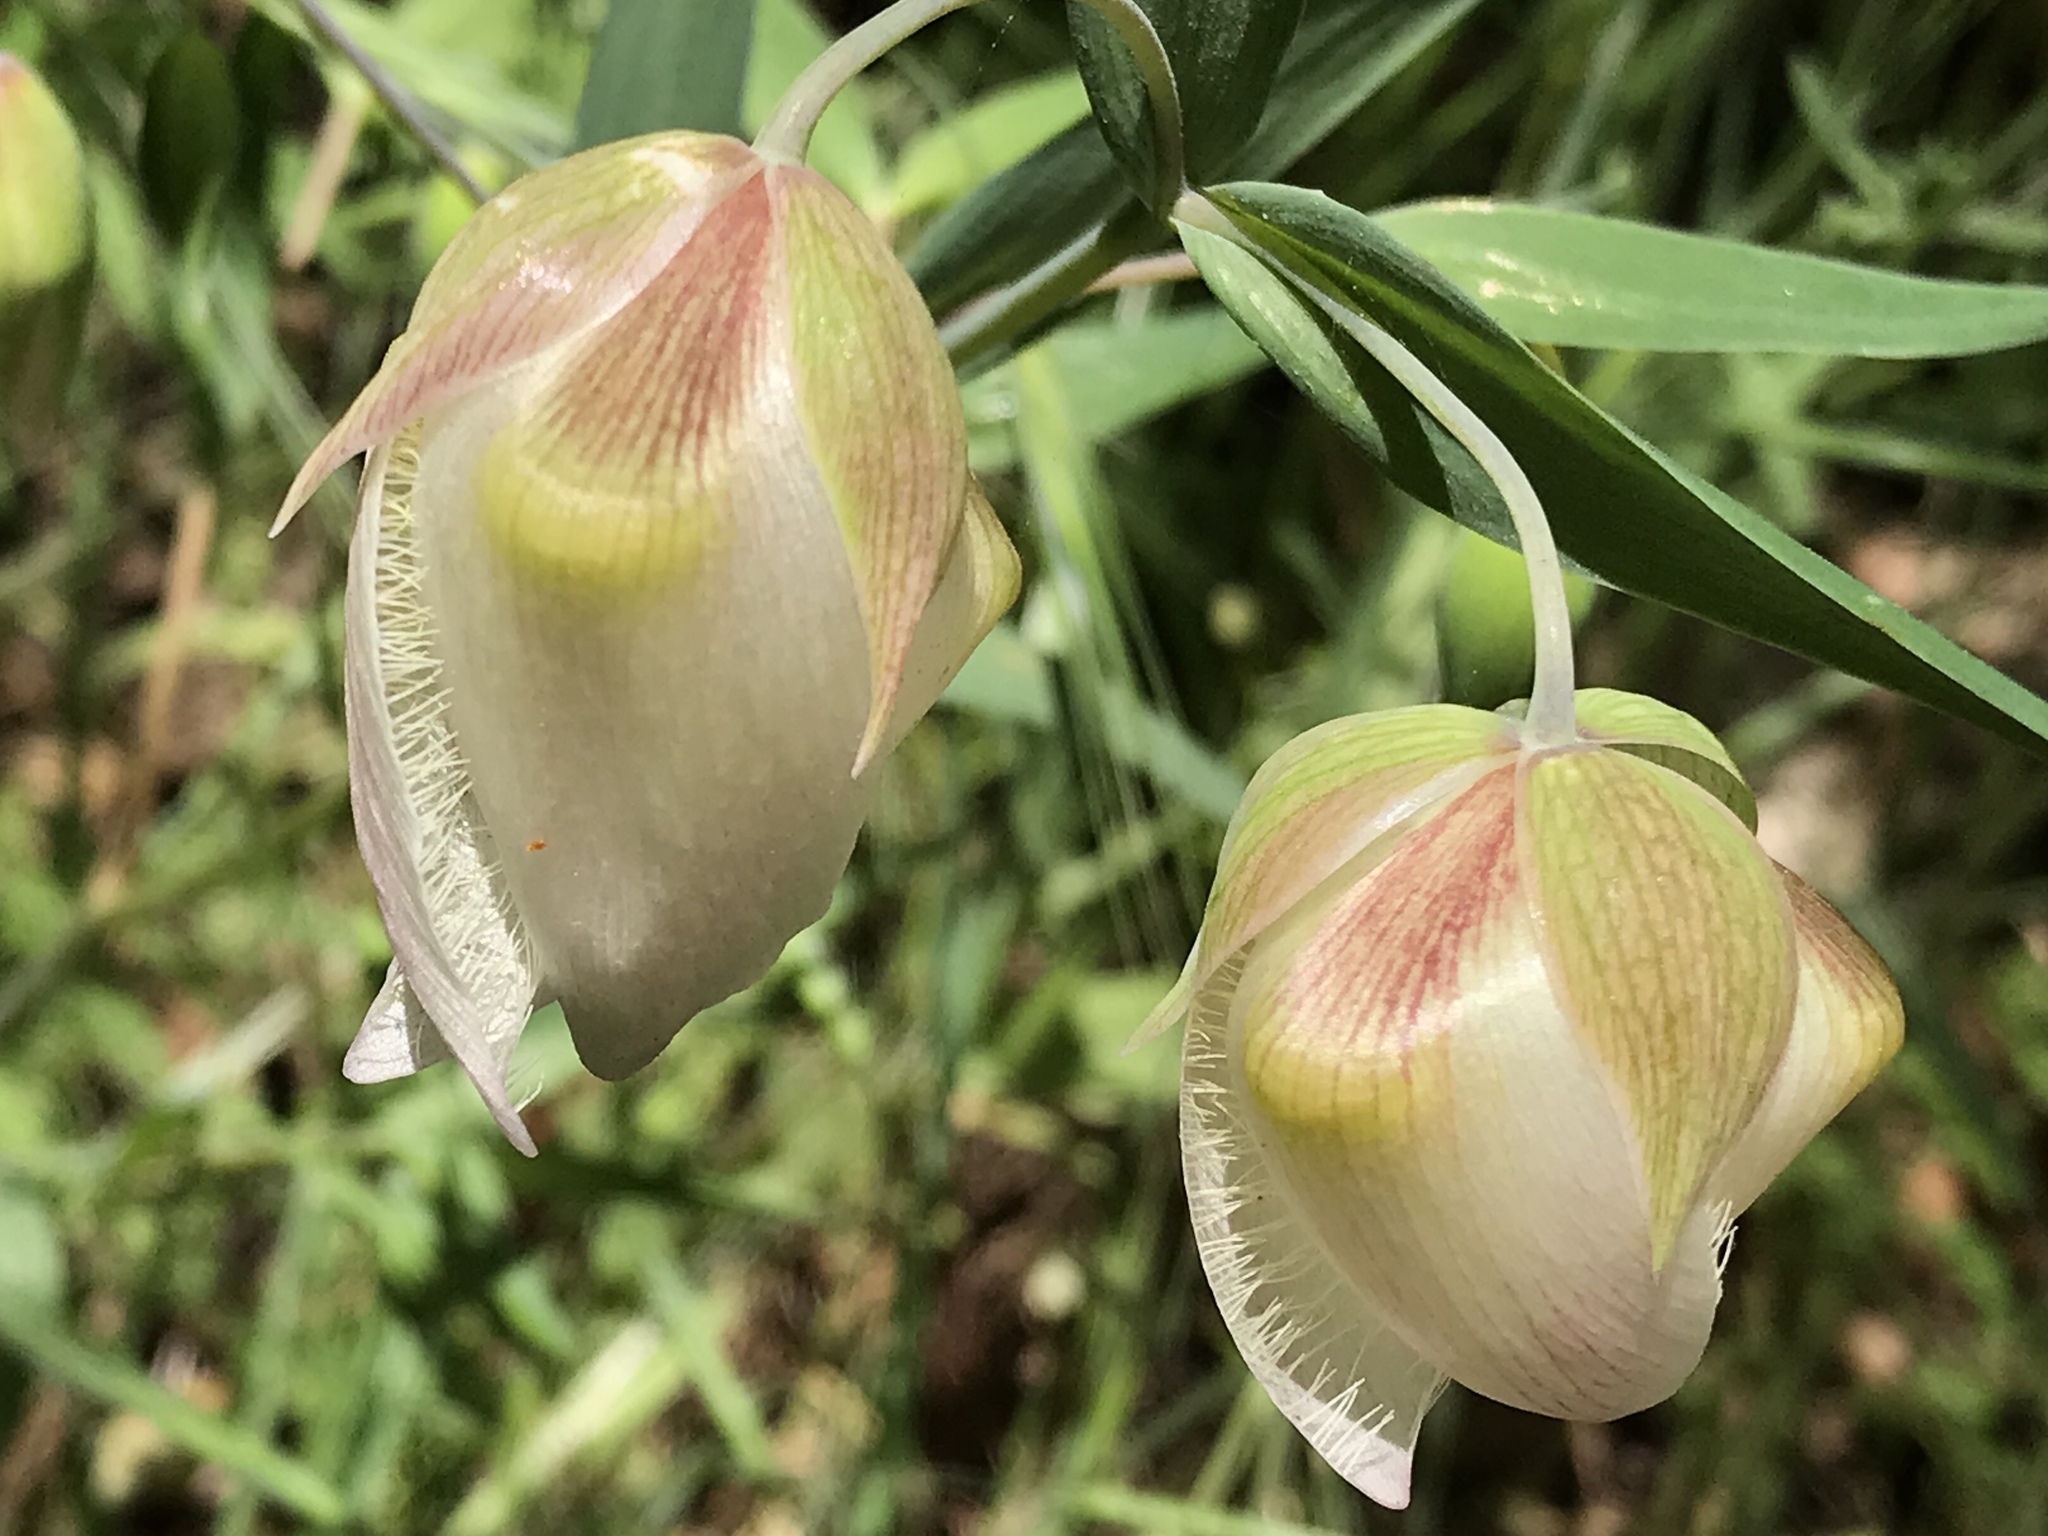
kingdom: Plantae
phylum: Tracheophyta
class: Liliopsida
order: Liliales
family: Liliaceae
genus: Calochortus
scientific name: Calochortus albus
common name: Fairy-lantern
